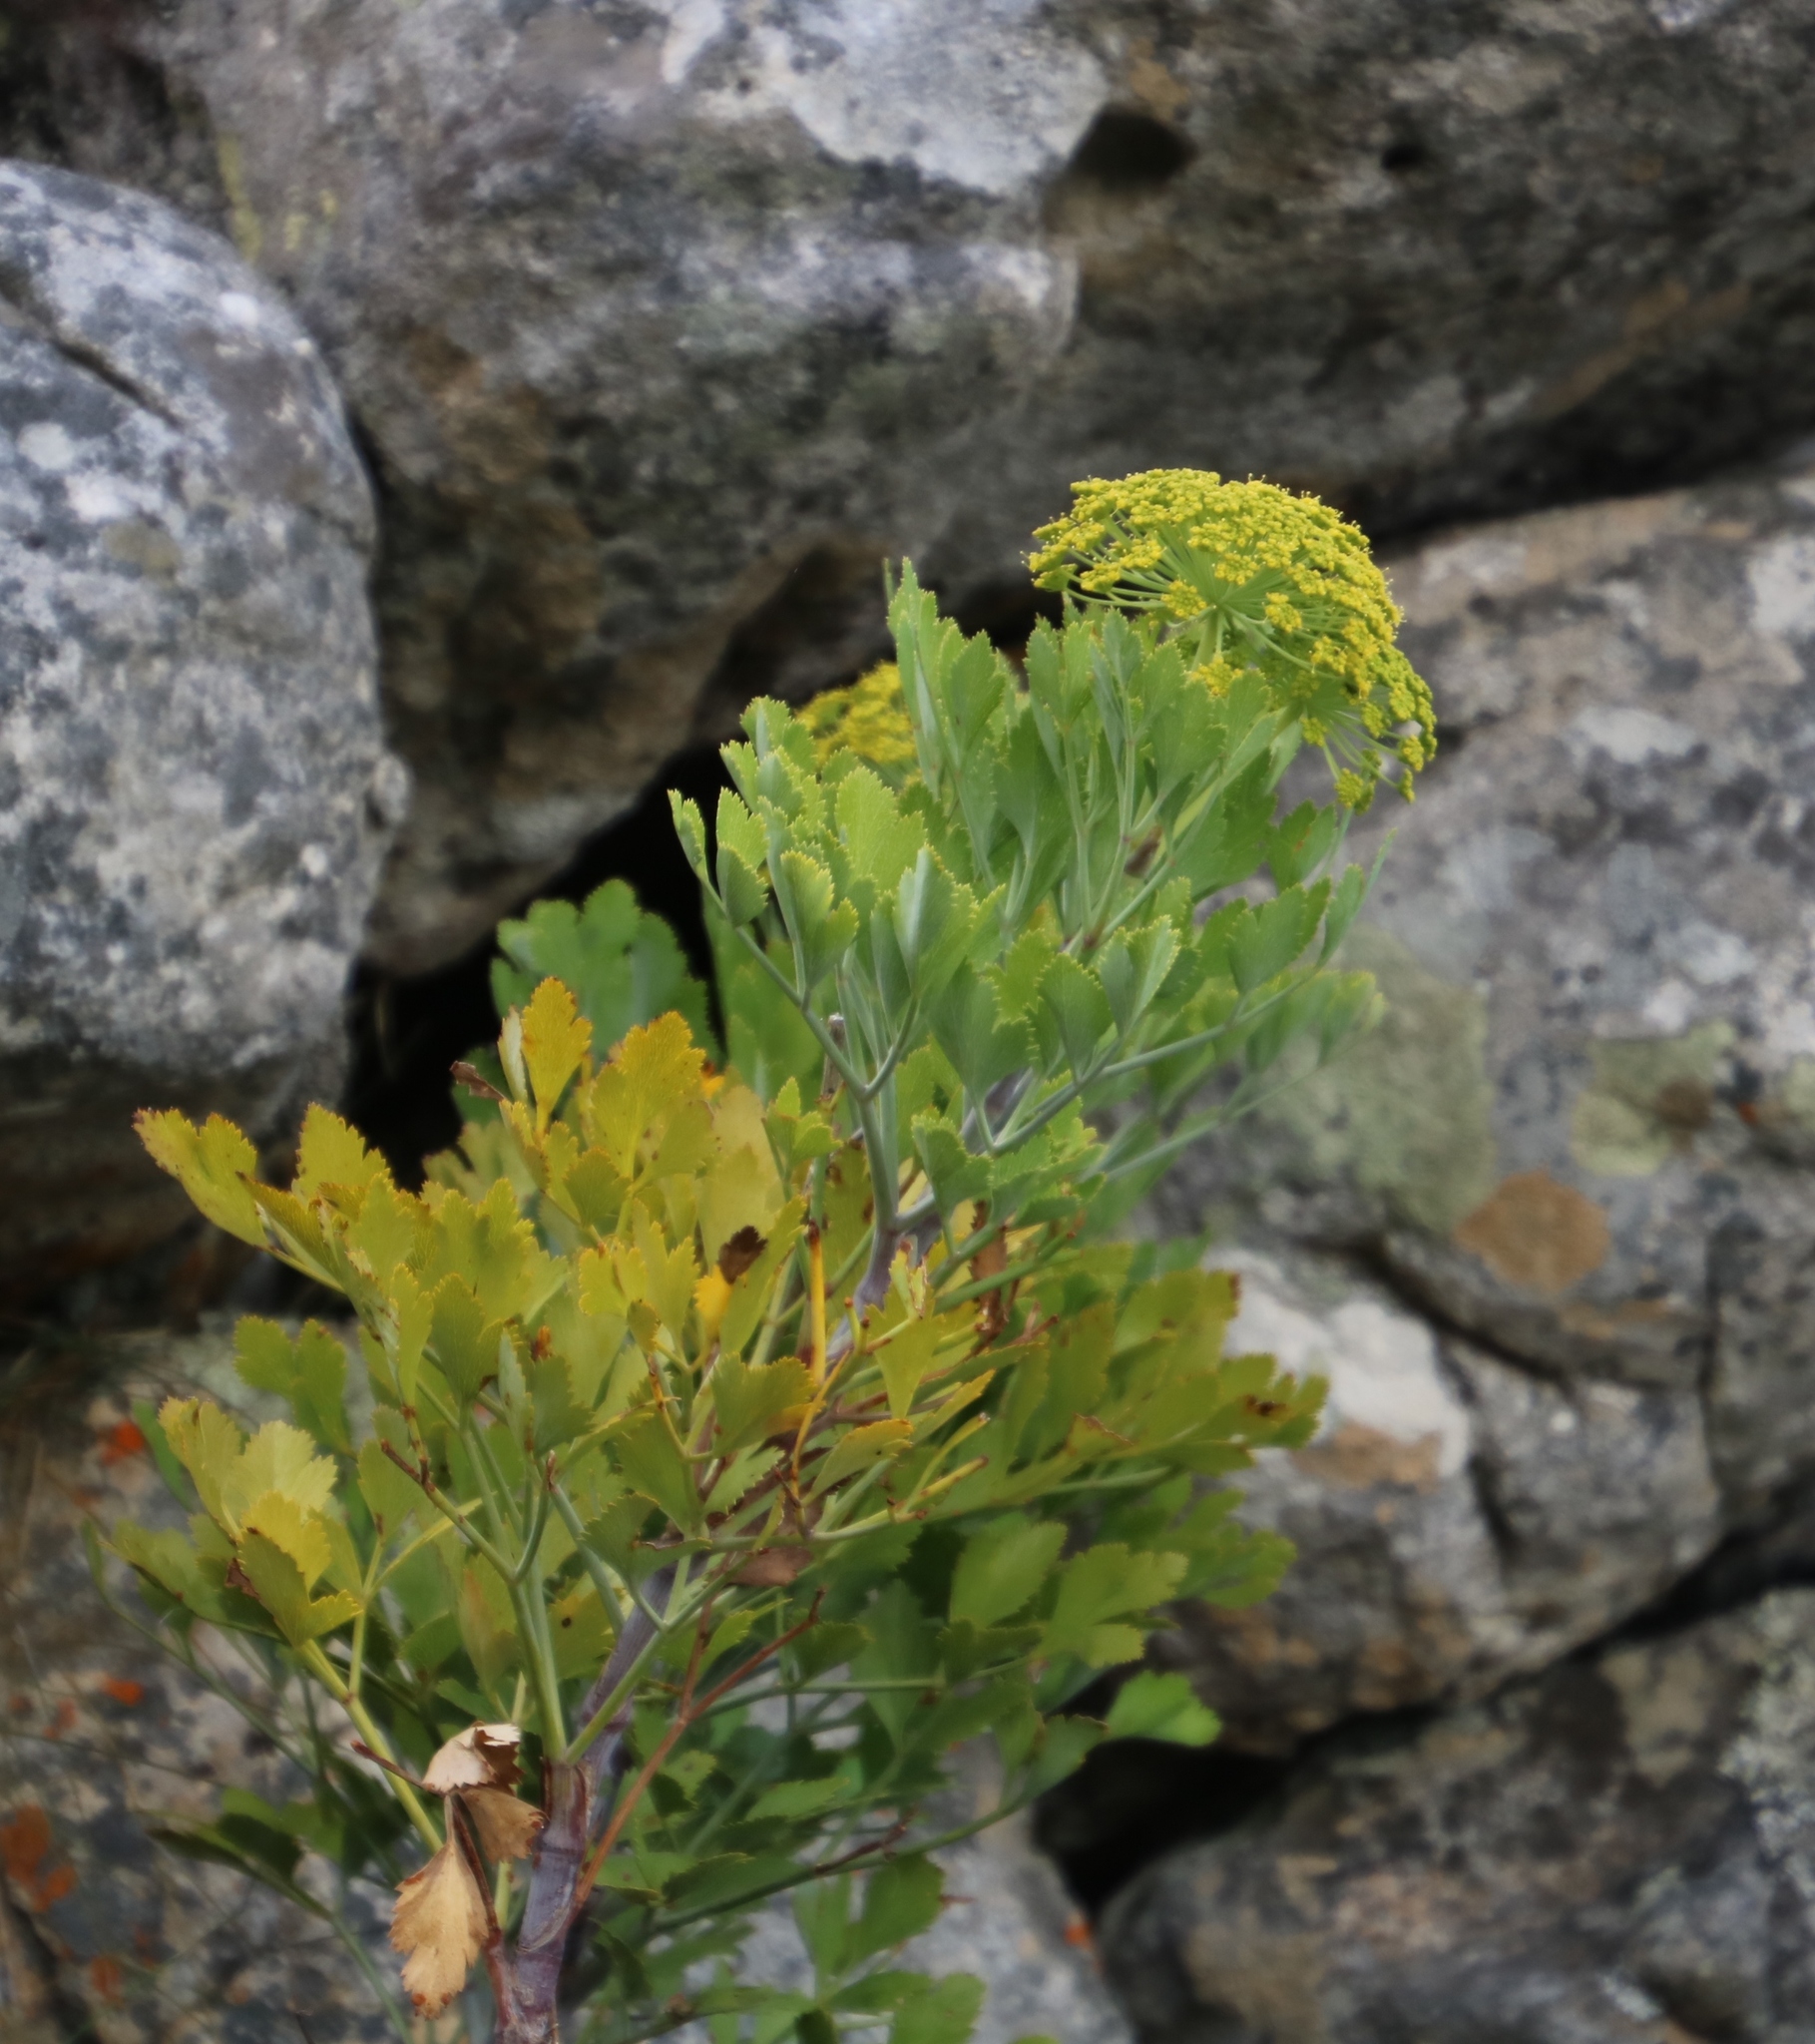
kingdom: Plantae
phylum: Tracheophyta
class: Magnoliopsida
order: Apiales
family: Apiaceae
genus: Notobubon
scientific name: Notobubon galbanum
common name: Blisterbush
